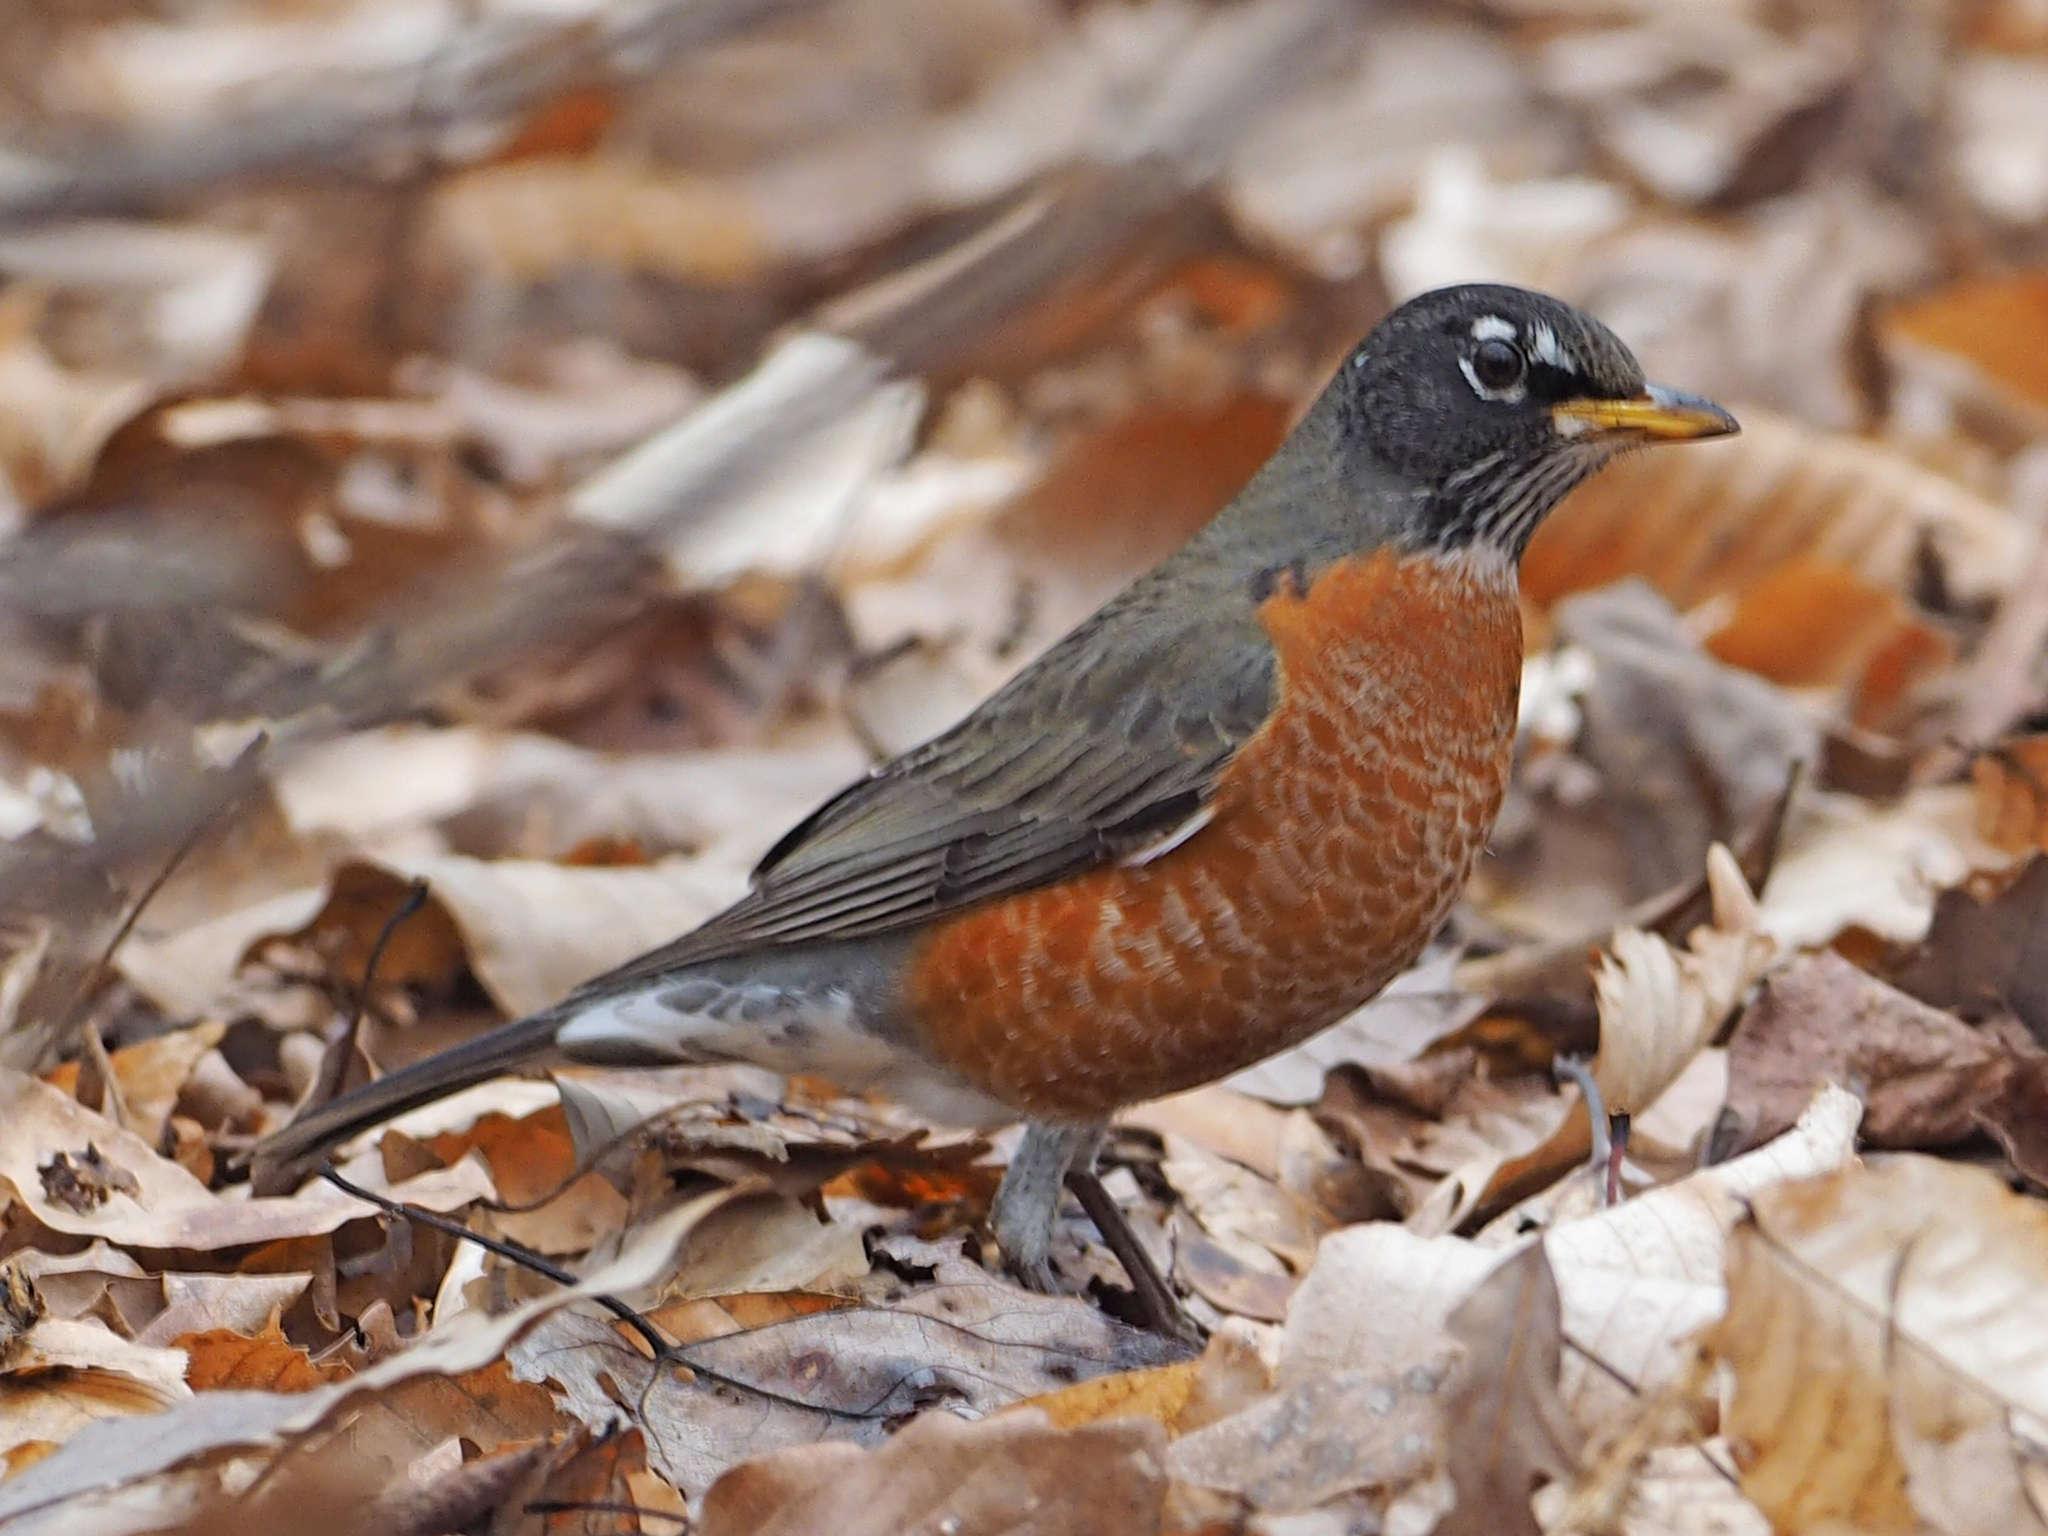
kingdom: Animalia
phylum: Chordata
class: Aves
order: Passeriformes
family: Turdidae
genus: Turdus
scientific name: Turdus migratorius
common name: American robin
